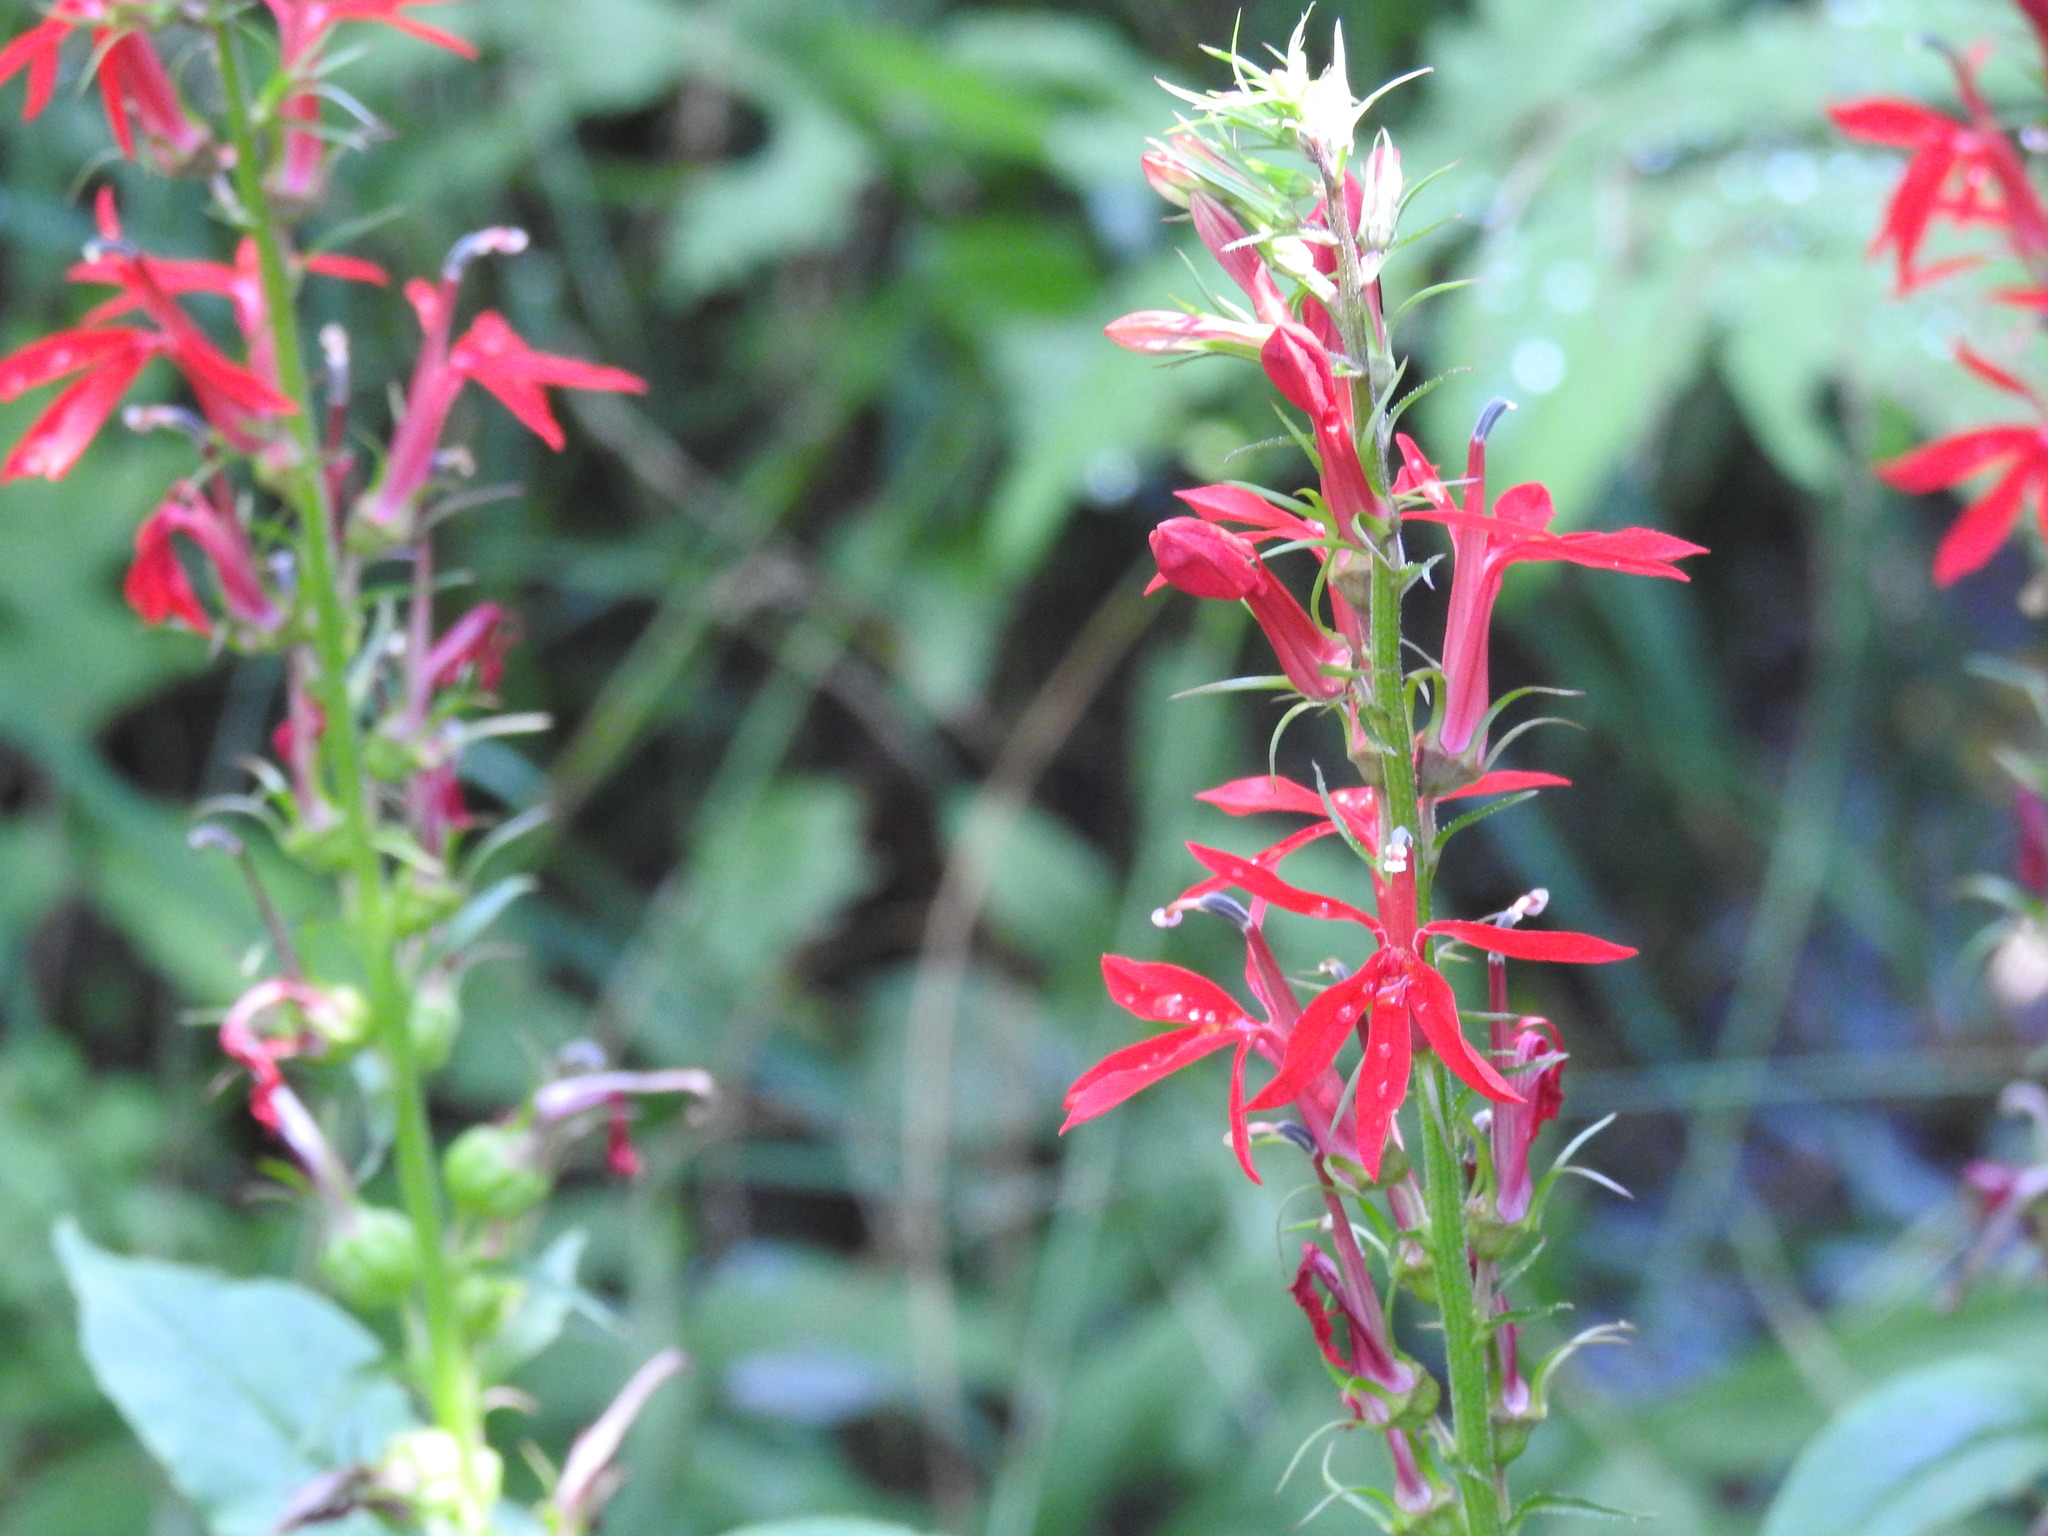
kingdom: Plantae
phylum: Tracheophyta
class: Magnoliopsida
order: Asterales
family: Campanulaceae
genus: Lobelia
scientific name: Lobelia cardinalis
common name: Cardinal flower
